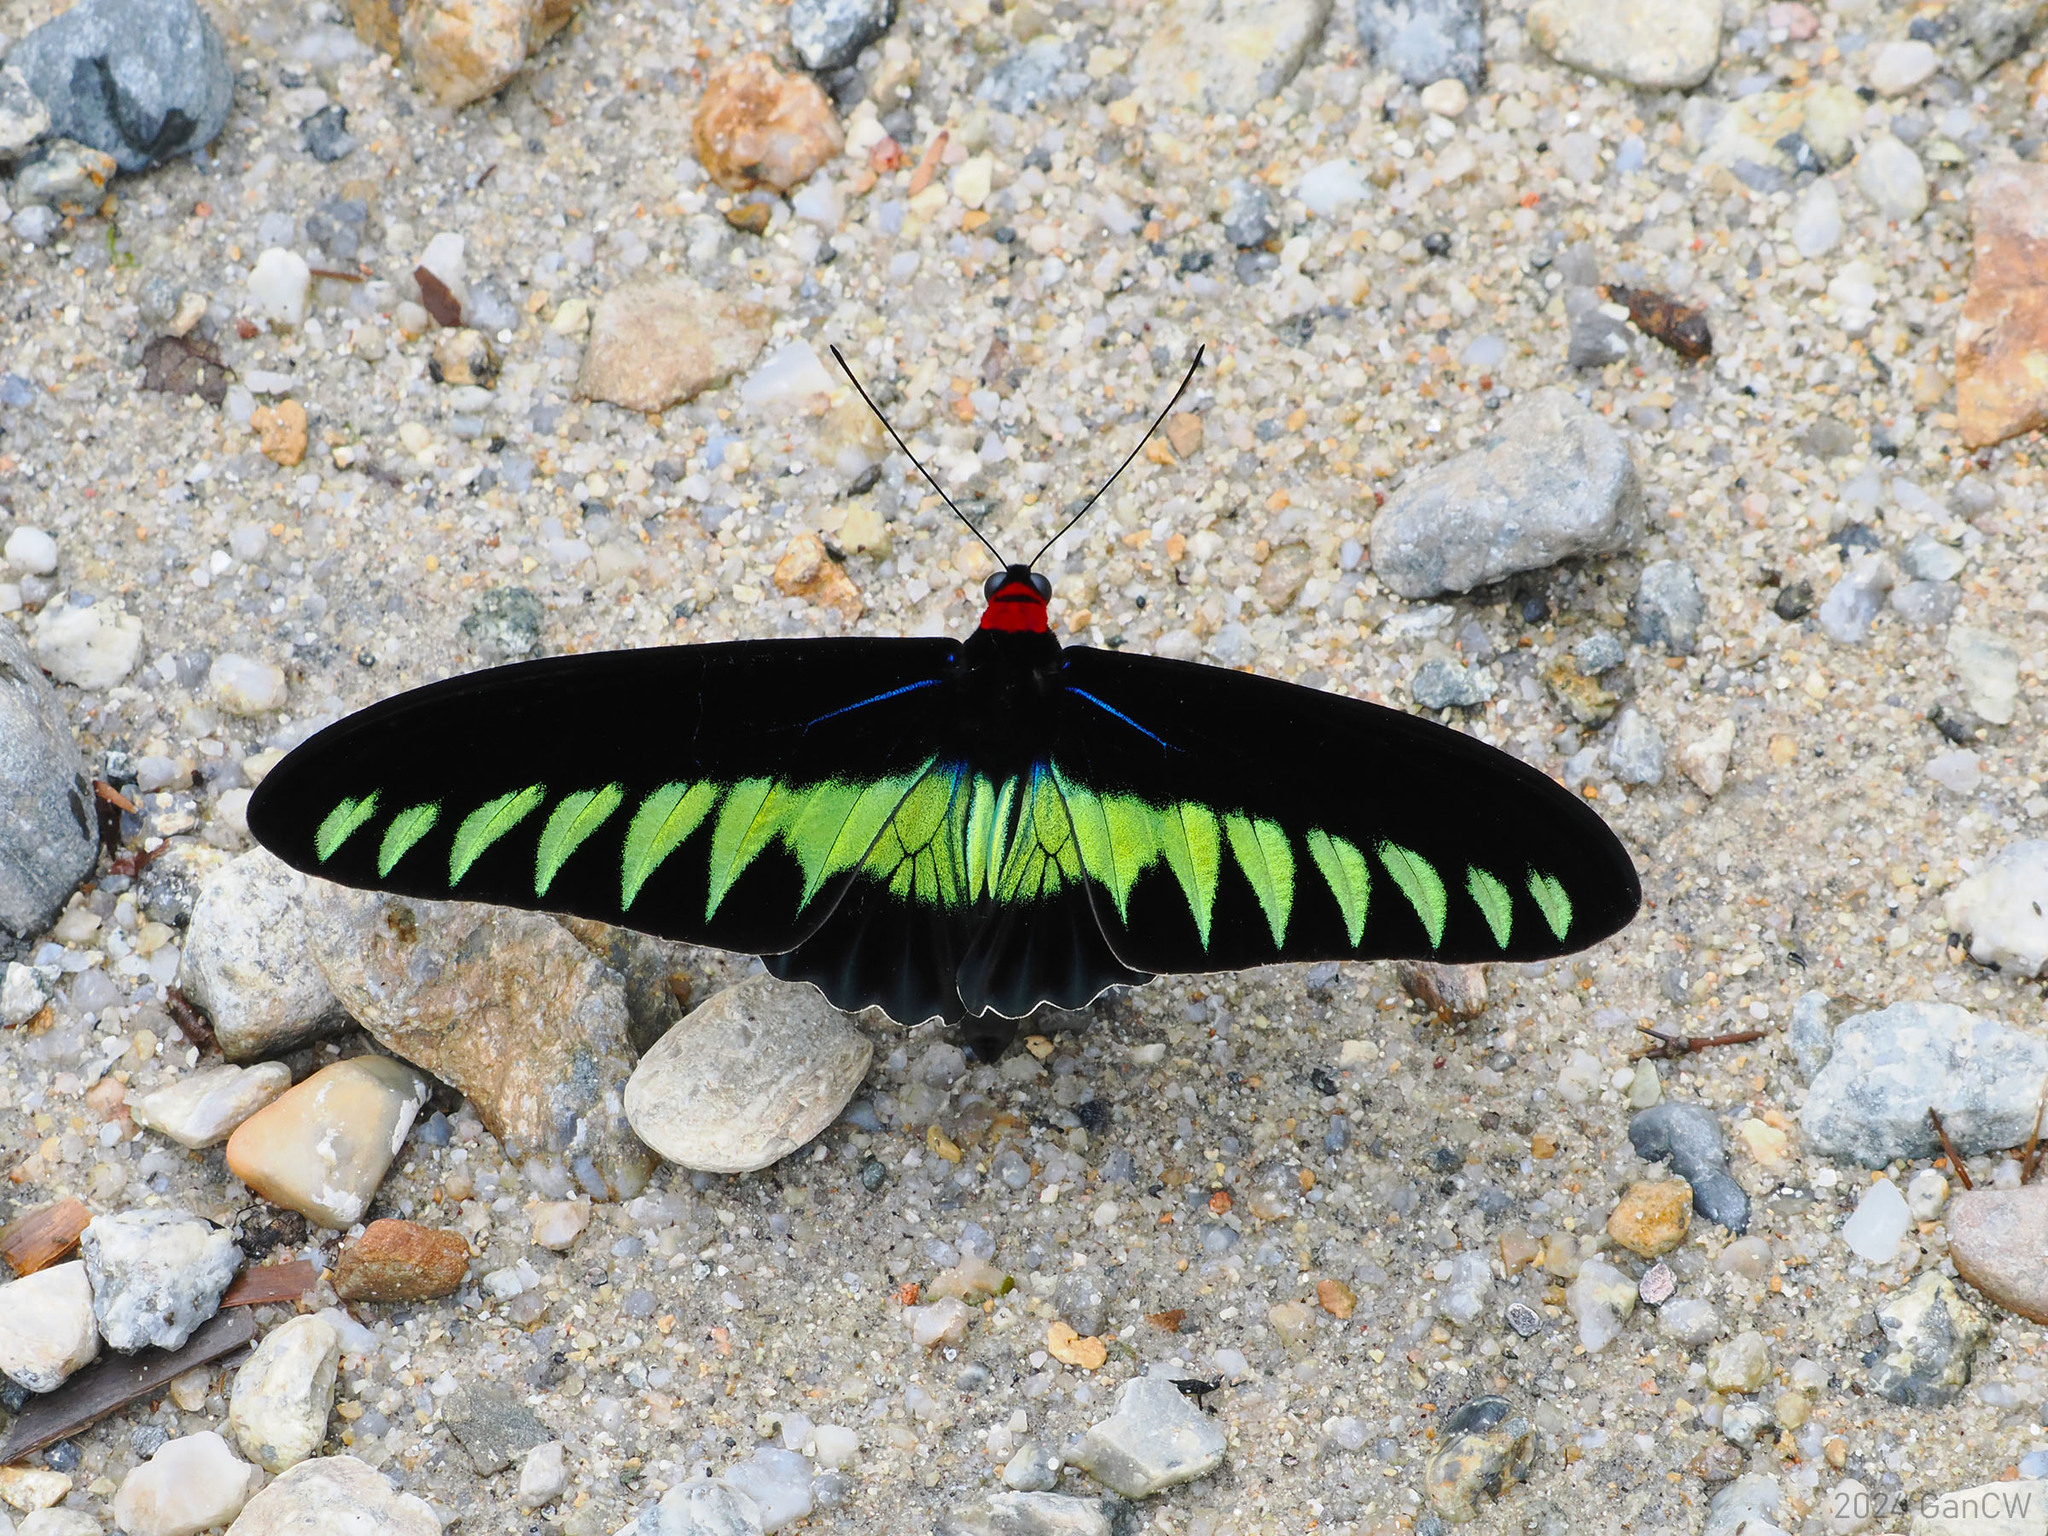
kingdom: Animalia
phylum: Arthropoda
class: Insecta
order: Lepidoptera
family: Papilionidae
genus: Trogonoptera
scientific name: Trogonoptera brookiana
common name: Raja brooke's birdwing
